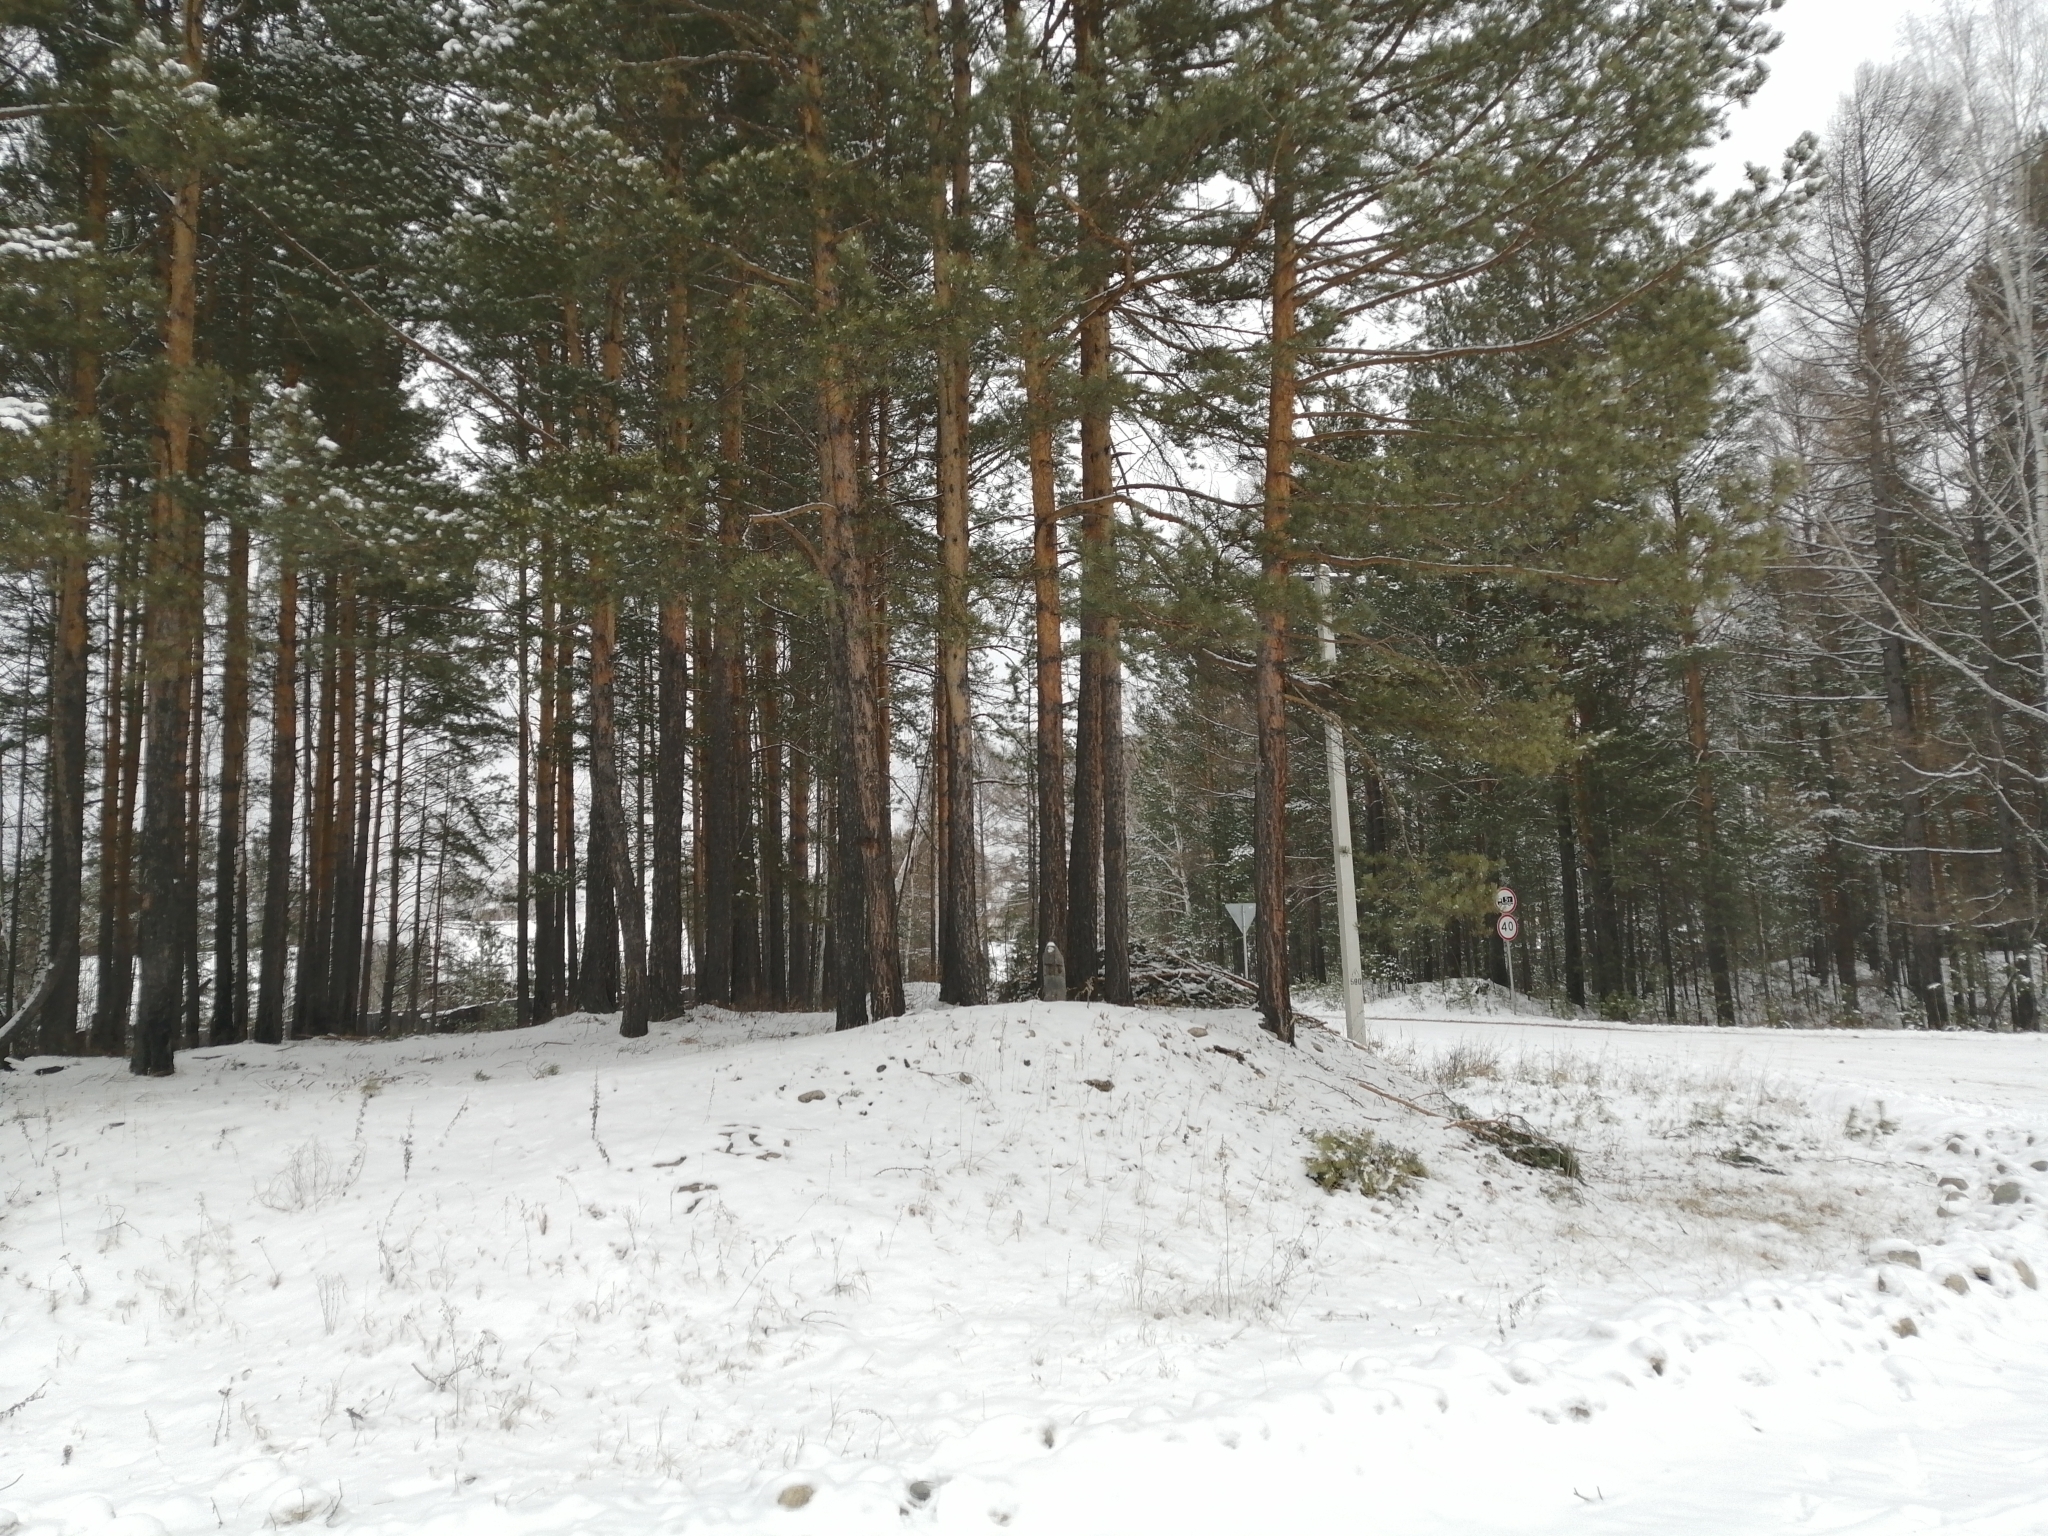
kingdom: Plantae
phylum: Tracheophyta
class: Pinopsida
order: Pinales
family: Pinaceae
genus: Pinus
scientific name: Pinus sylvestris
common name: Scots pine
